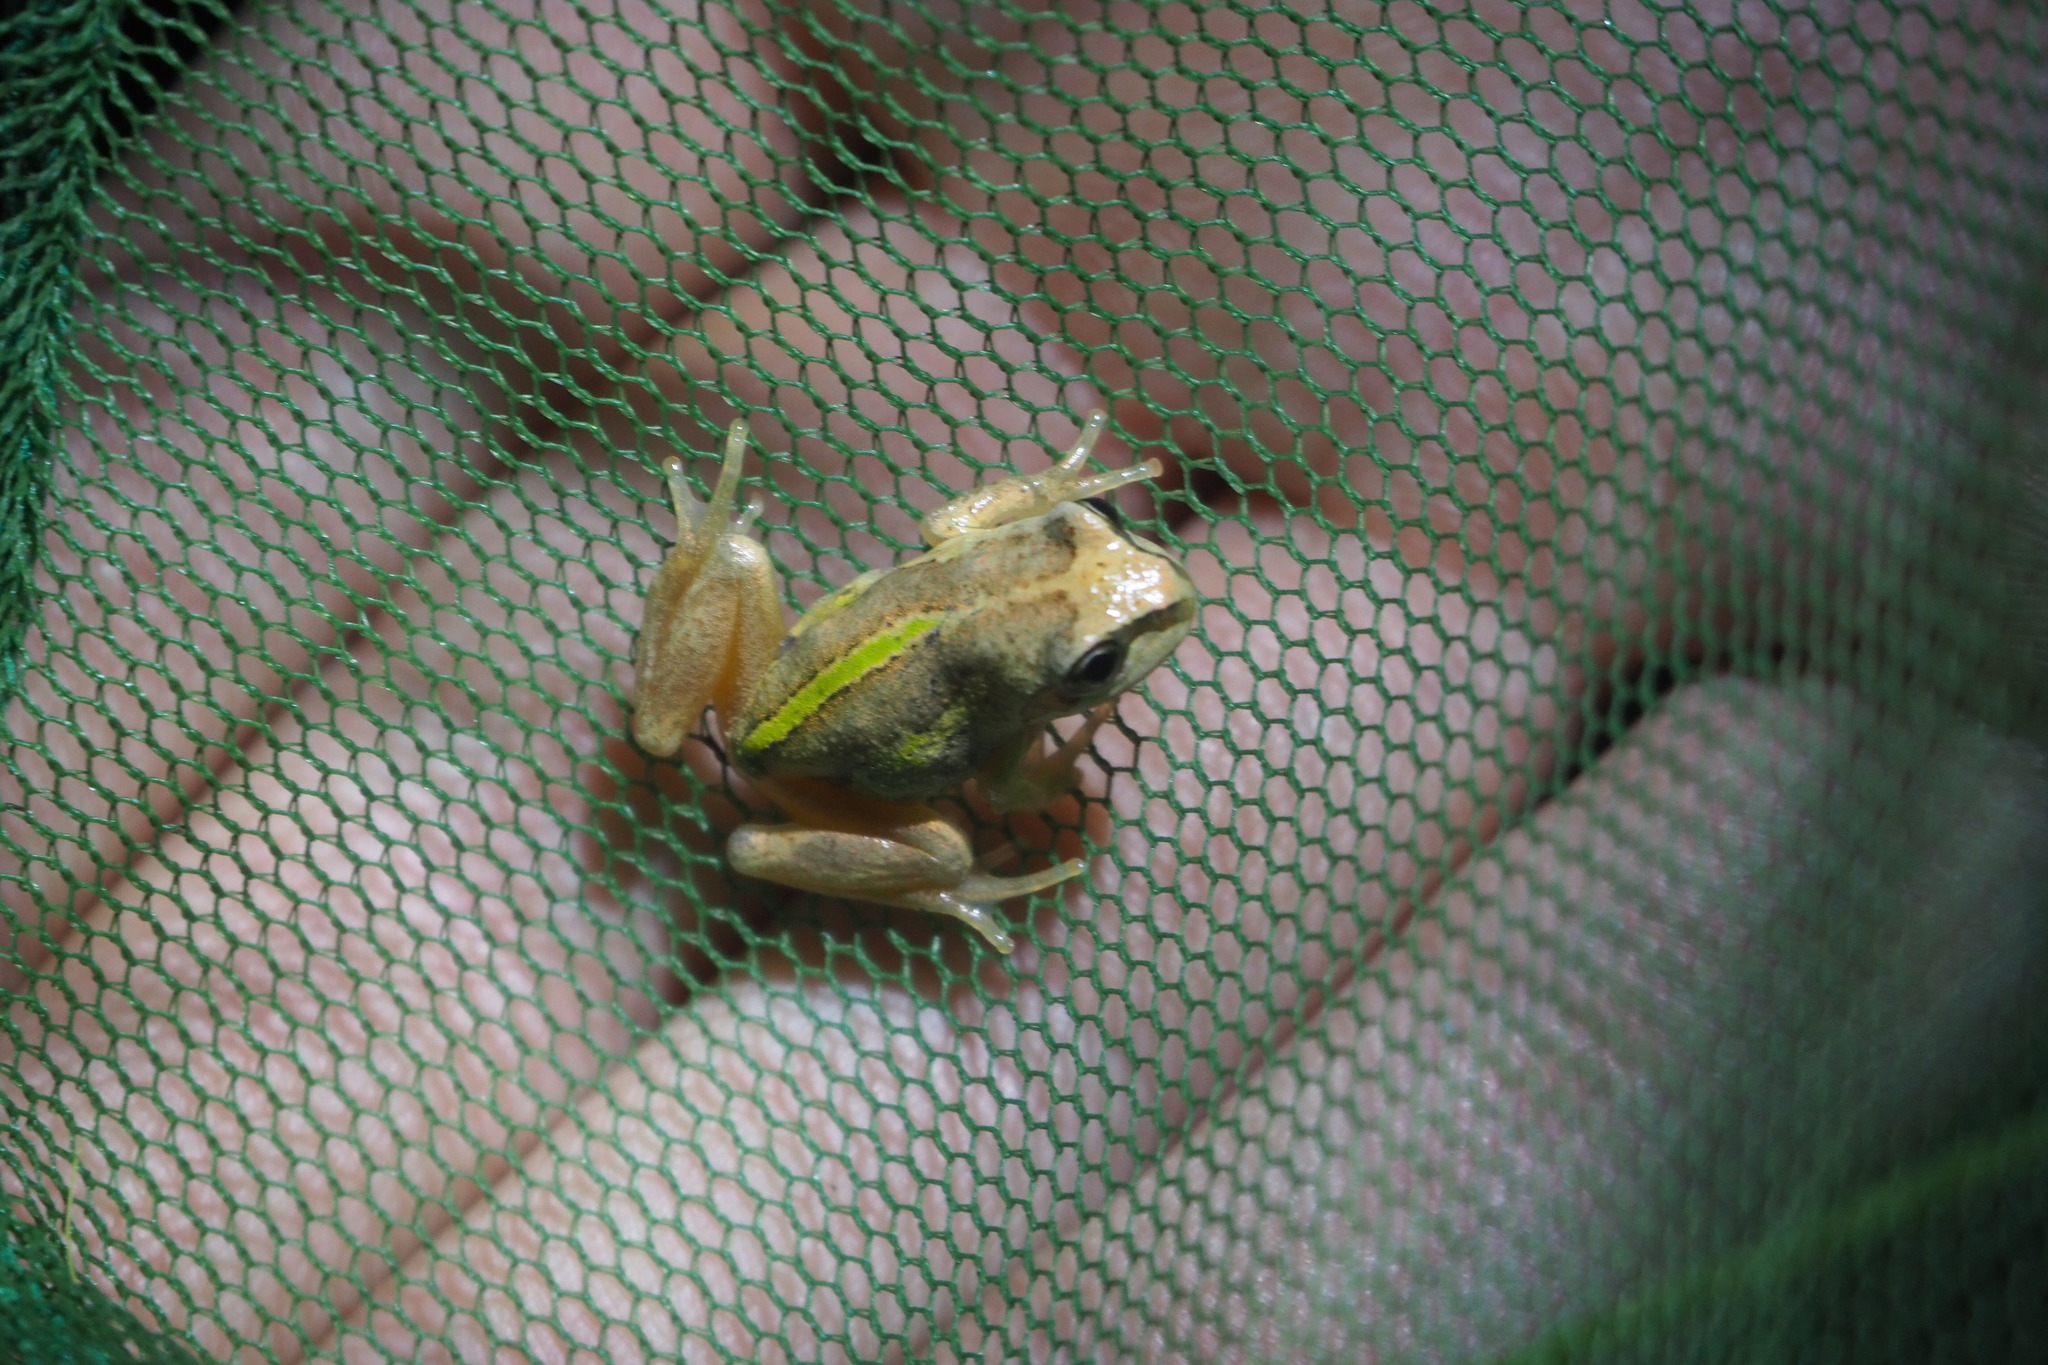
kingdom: Animalia
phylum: Chordata
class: Amphibia
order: Anura
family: Pelodryadidae
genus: Litoria
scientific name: Litoria verreauxii
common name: Alpine tree frog
